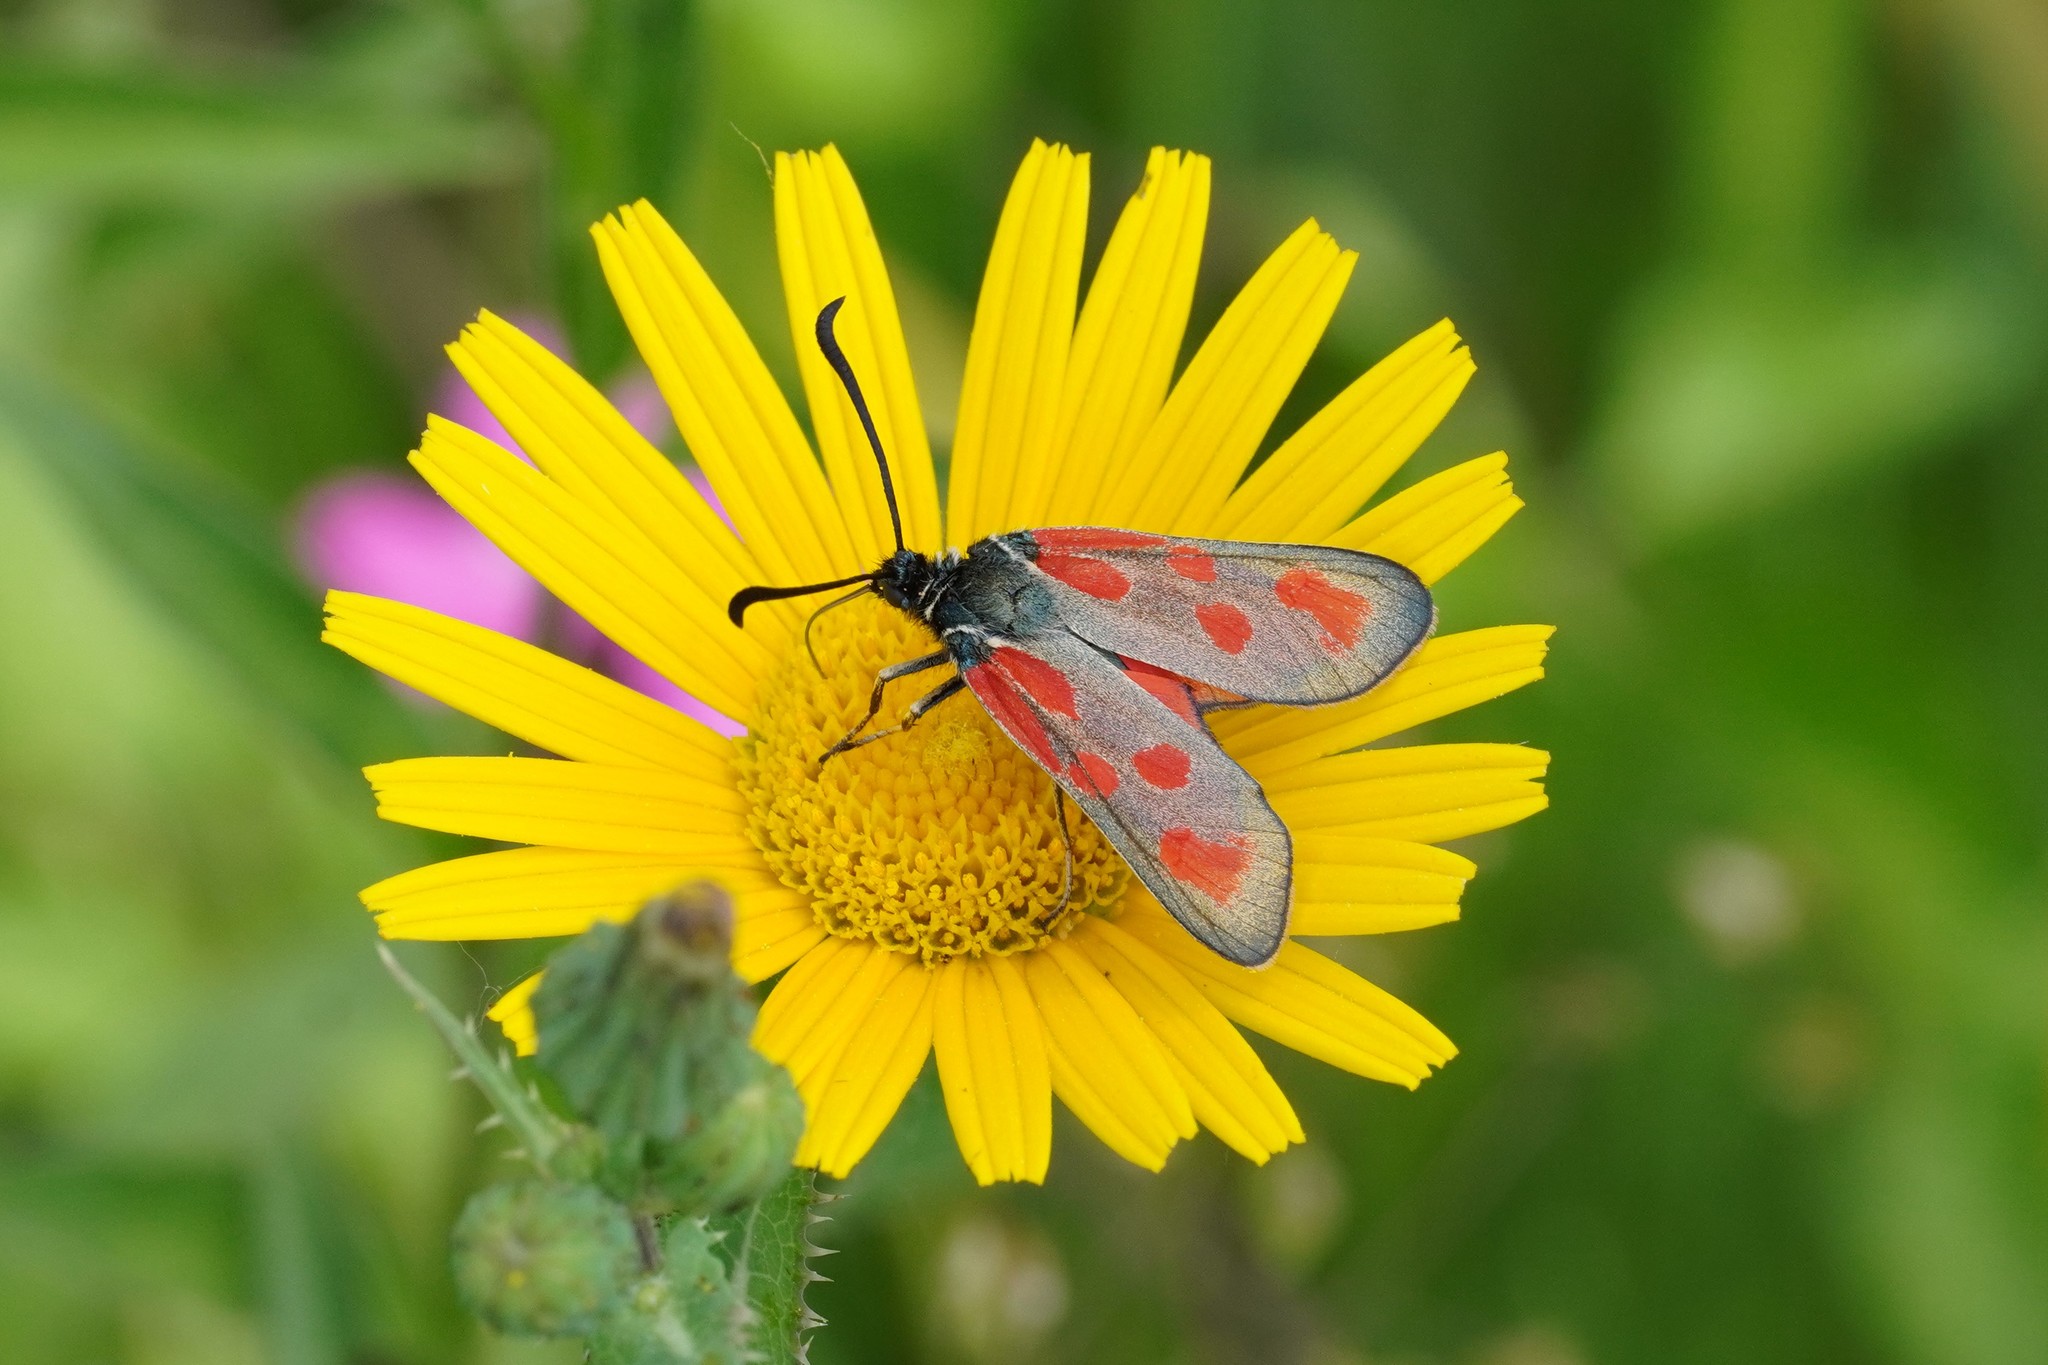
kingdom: Animalia
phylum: Arthropoda
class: Insecta
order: Lepidoptera
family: Zygaenidae
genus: Zygaena
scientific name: Zygaena loti
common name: Slender scotch burnet
